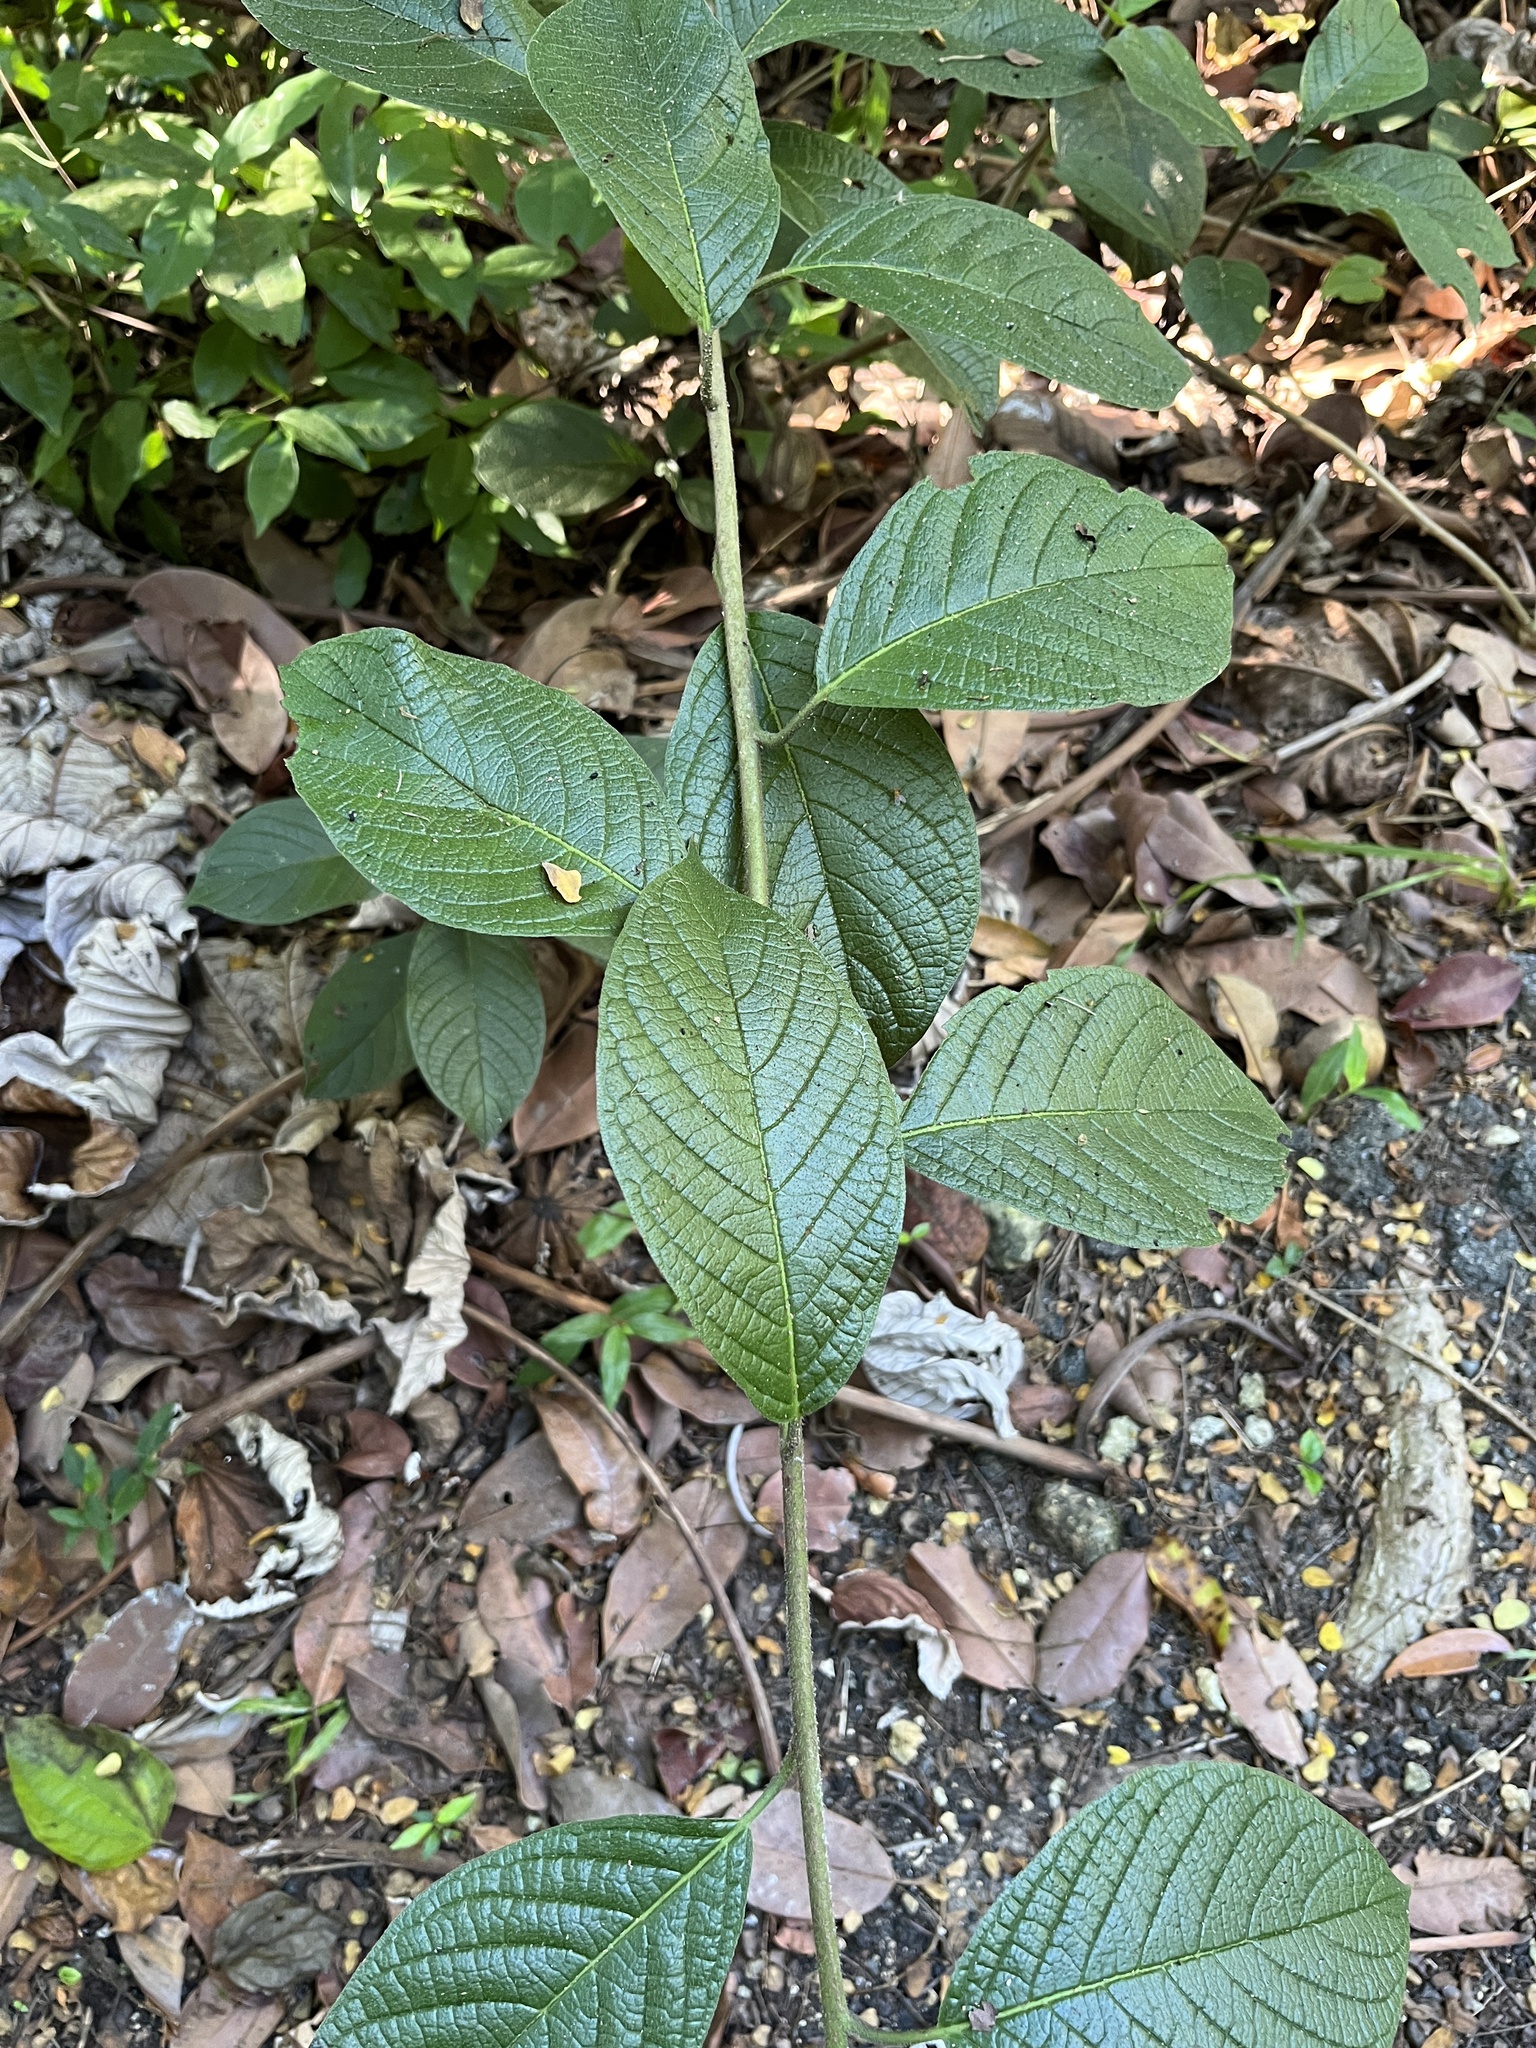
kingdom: Plantae
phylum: Tracheophyta
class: Magnoliopsida
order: Boraginales
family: Heliotropiaceae
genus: Heliotropium
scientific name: Heliotropium verdcourtii
